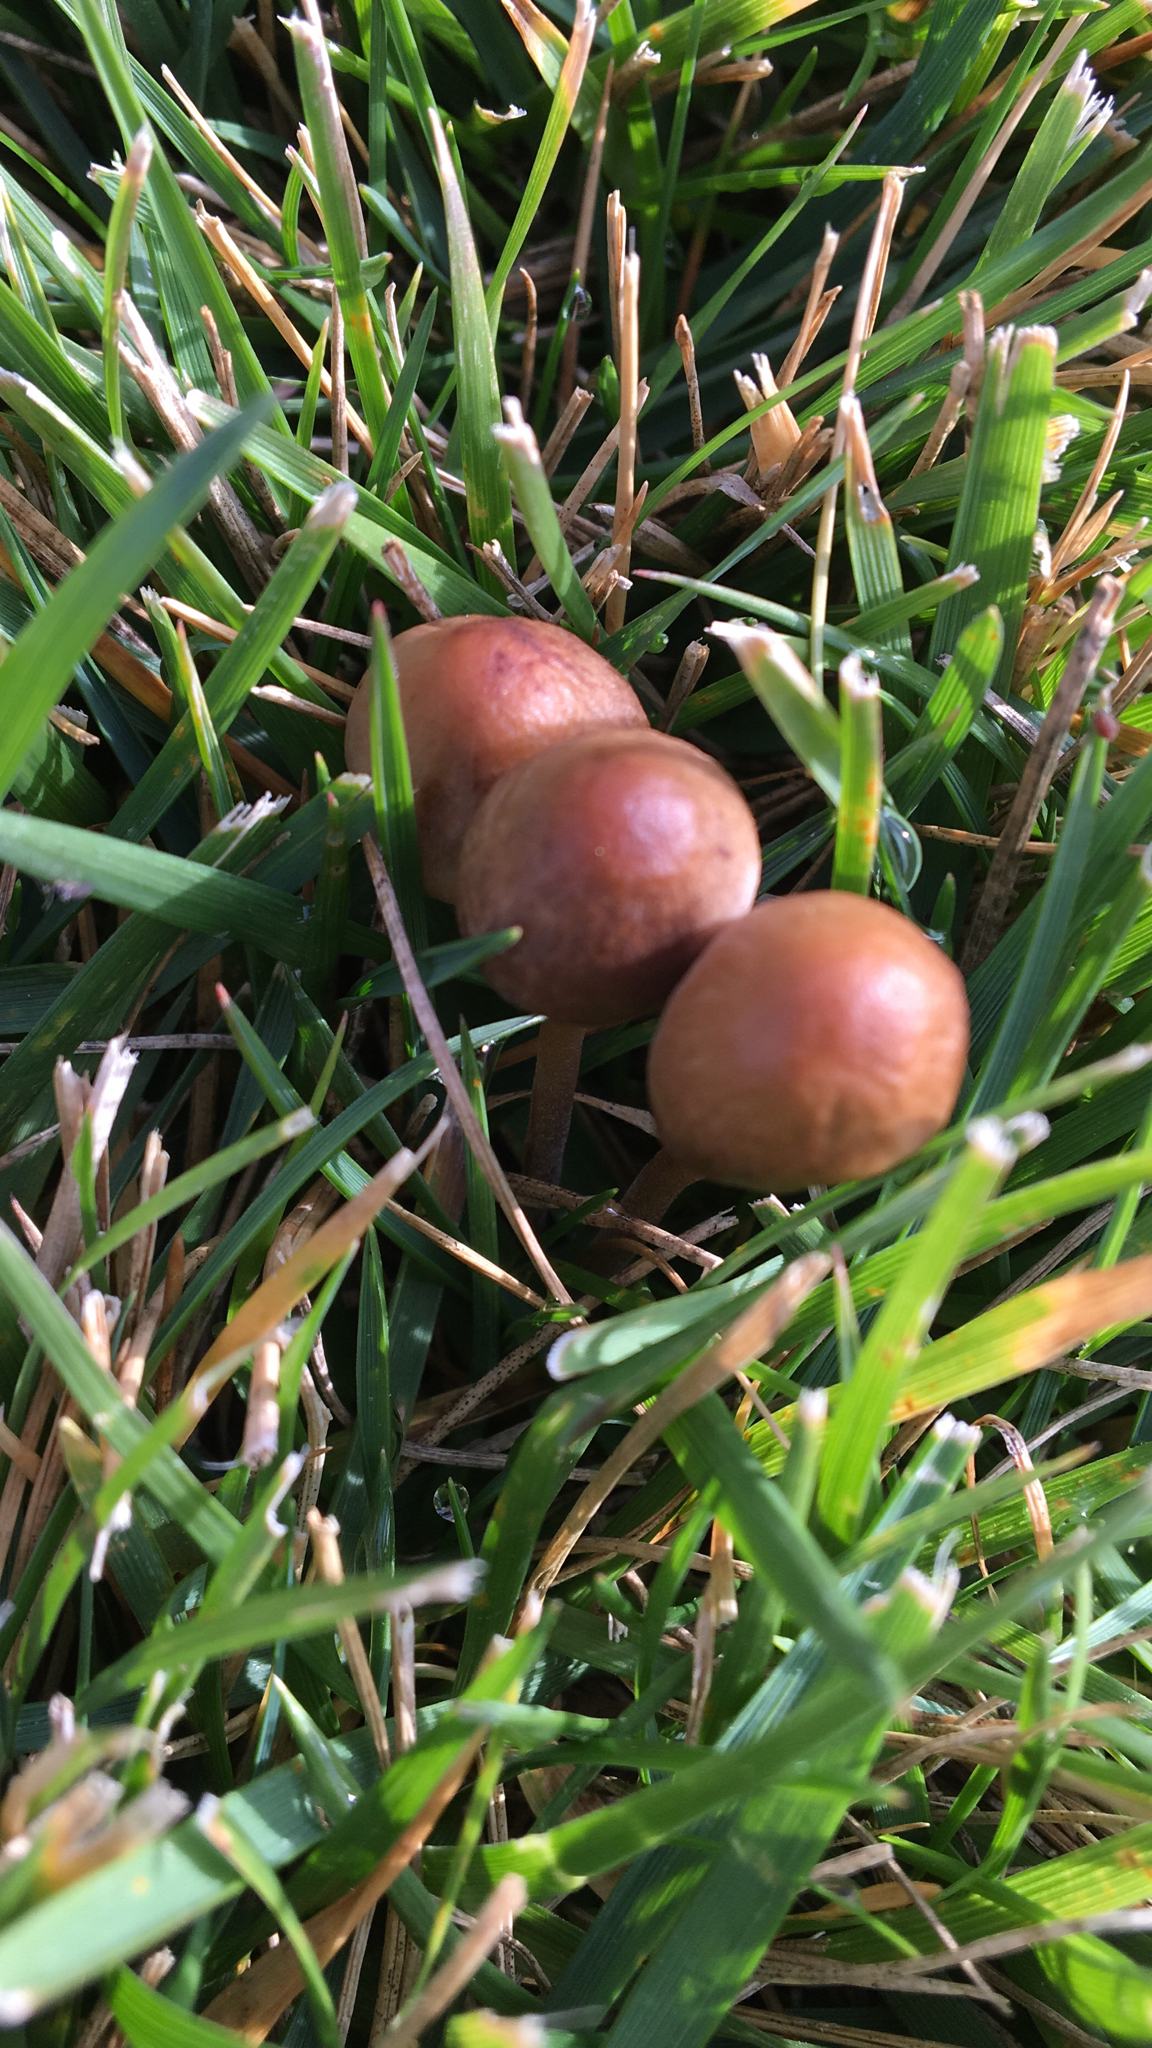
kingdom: Fungi
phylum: Basidiomycota
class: Agaricomycetes
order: Agaricales
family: Bolbitiaceae
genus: Panaeolina
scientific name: Panaeolina foenisecii
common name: Brown hay cap
